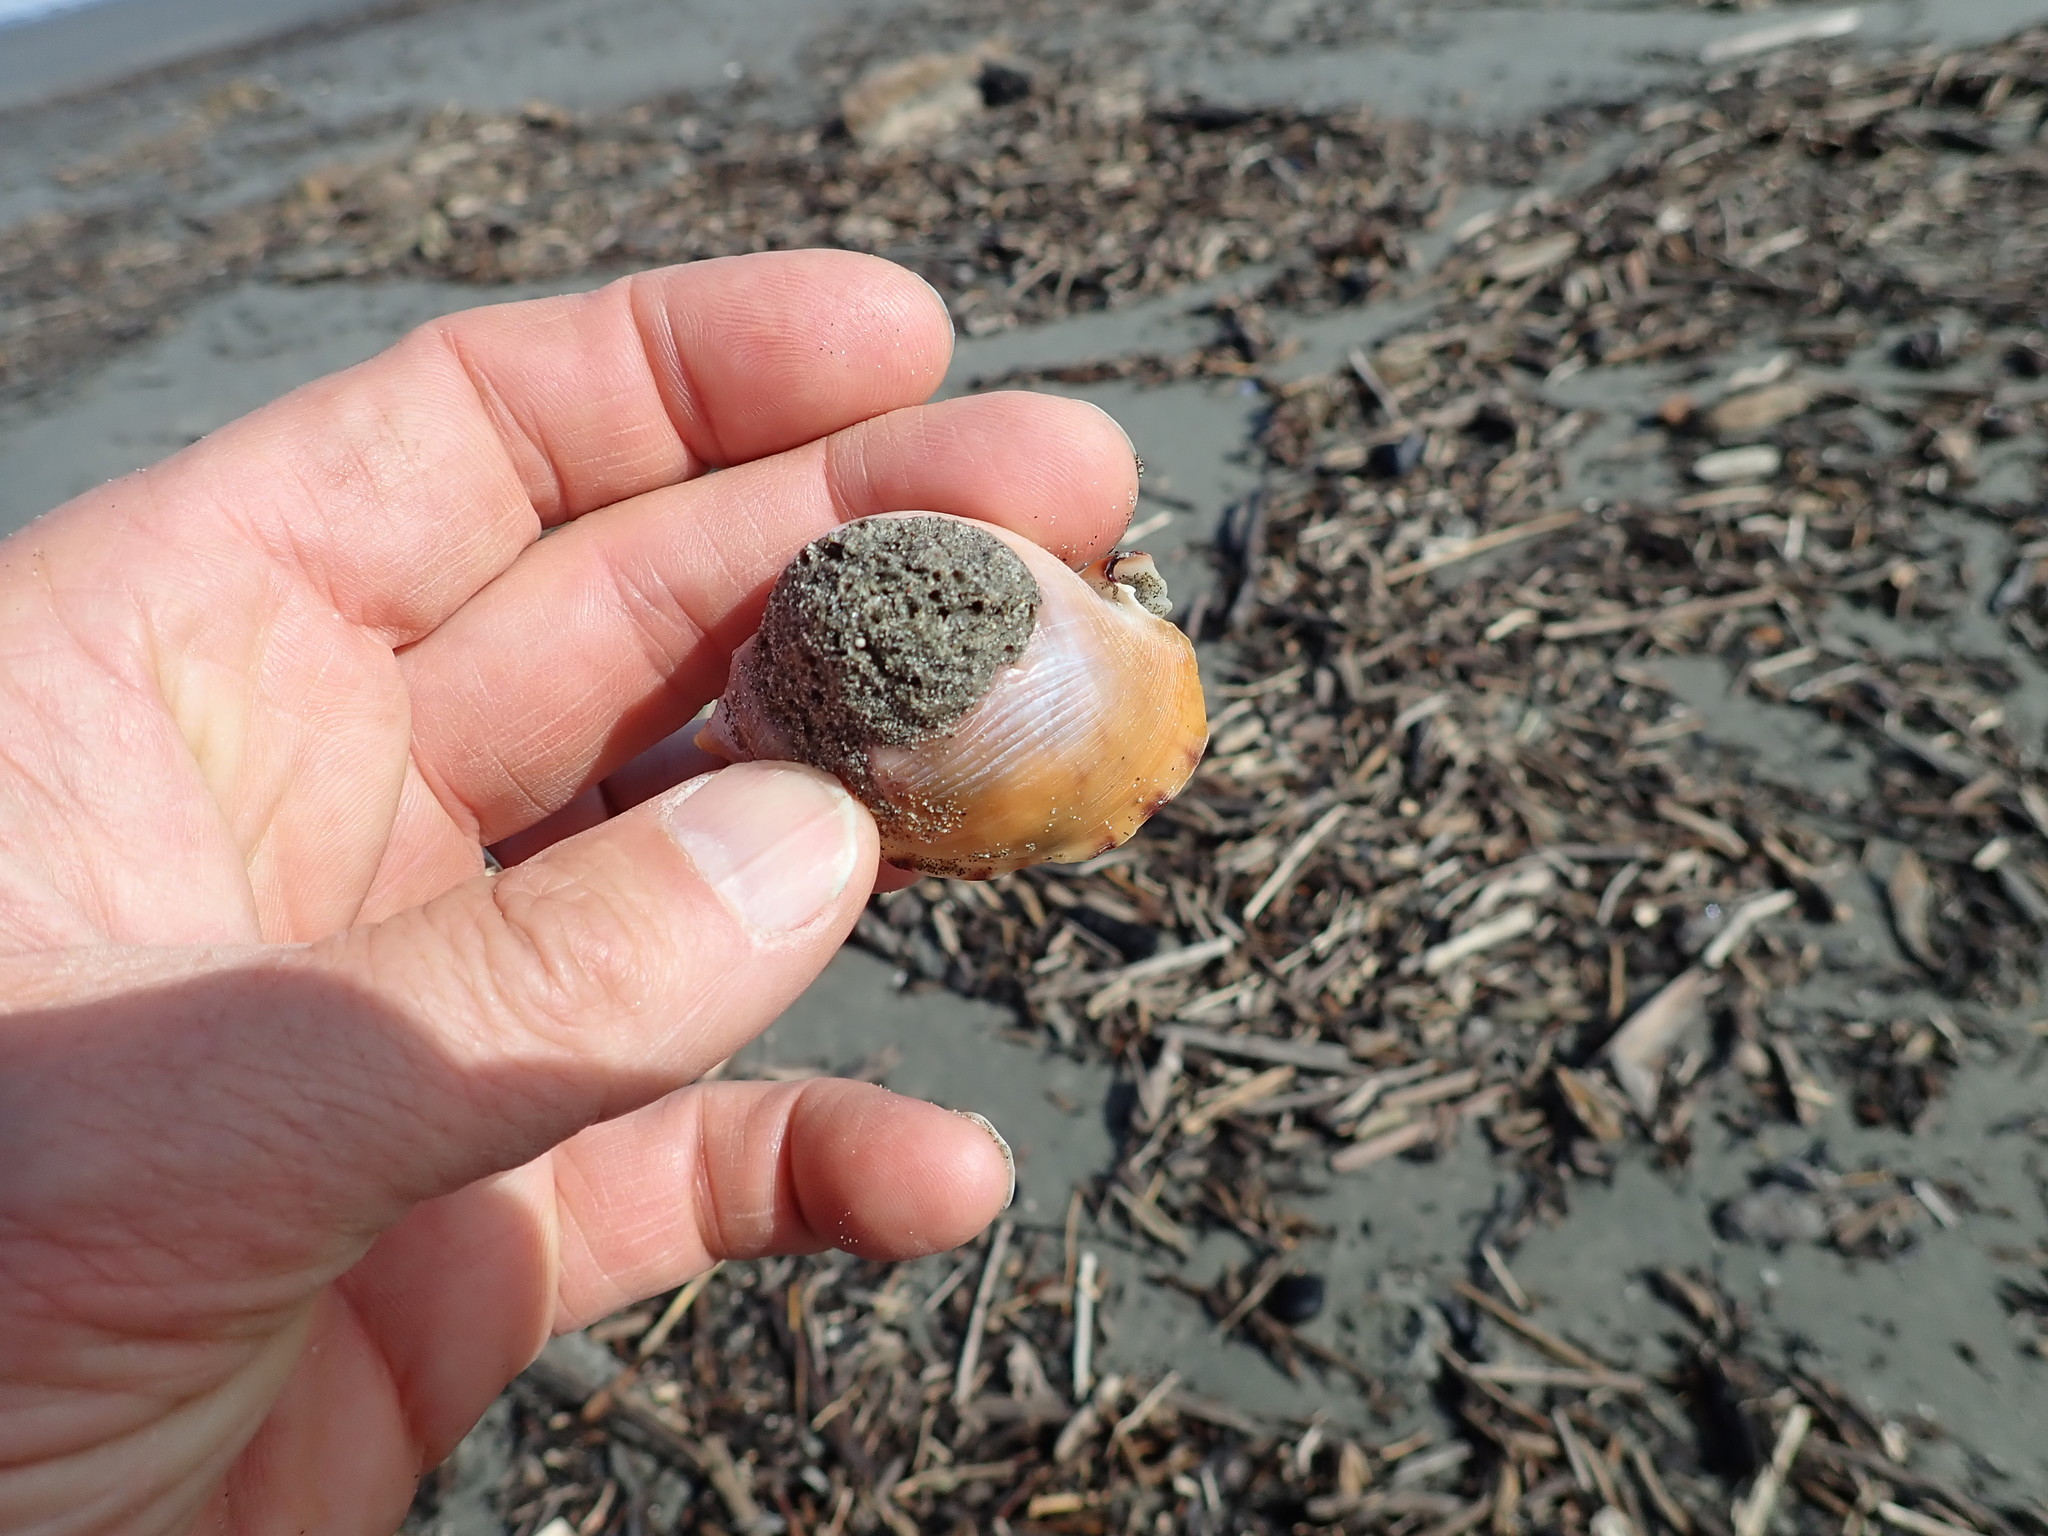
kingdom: Animalia
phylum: Mollusca
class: Gastropoda
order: Littorinimorpha
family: Cassidae
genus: Semicassis
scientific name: Semicassis pyrum
